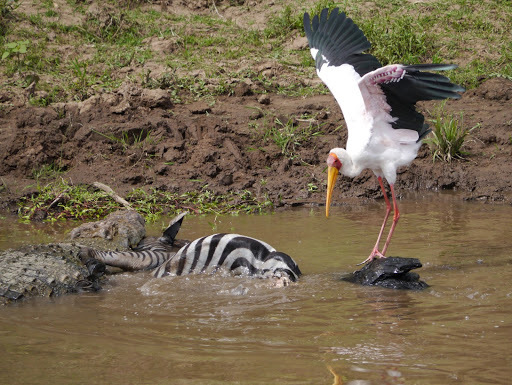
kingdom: Animalia
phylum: Chordata
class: Aves
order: Ciconiiformes
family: Ciconiidae
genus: Mycteria
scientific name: Mycteria ibis
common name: Yellow-billed stork
